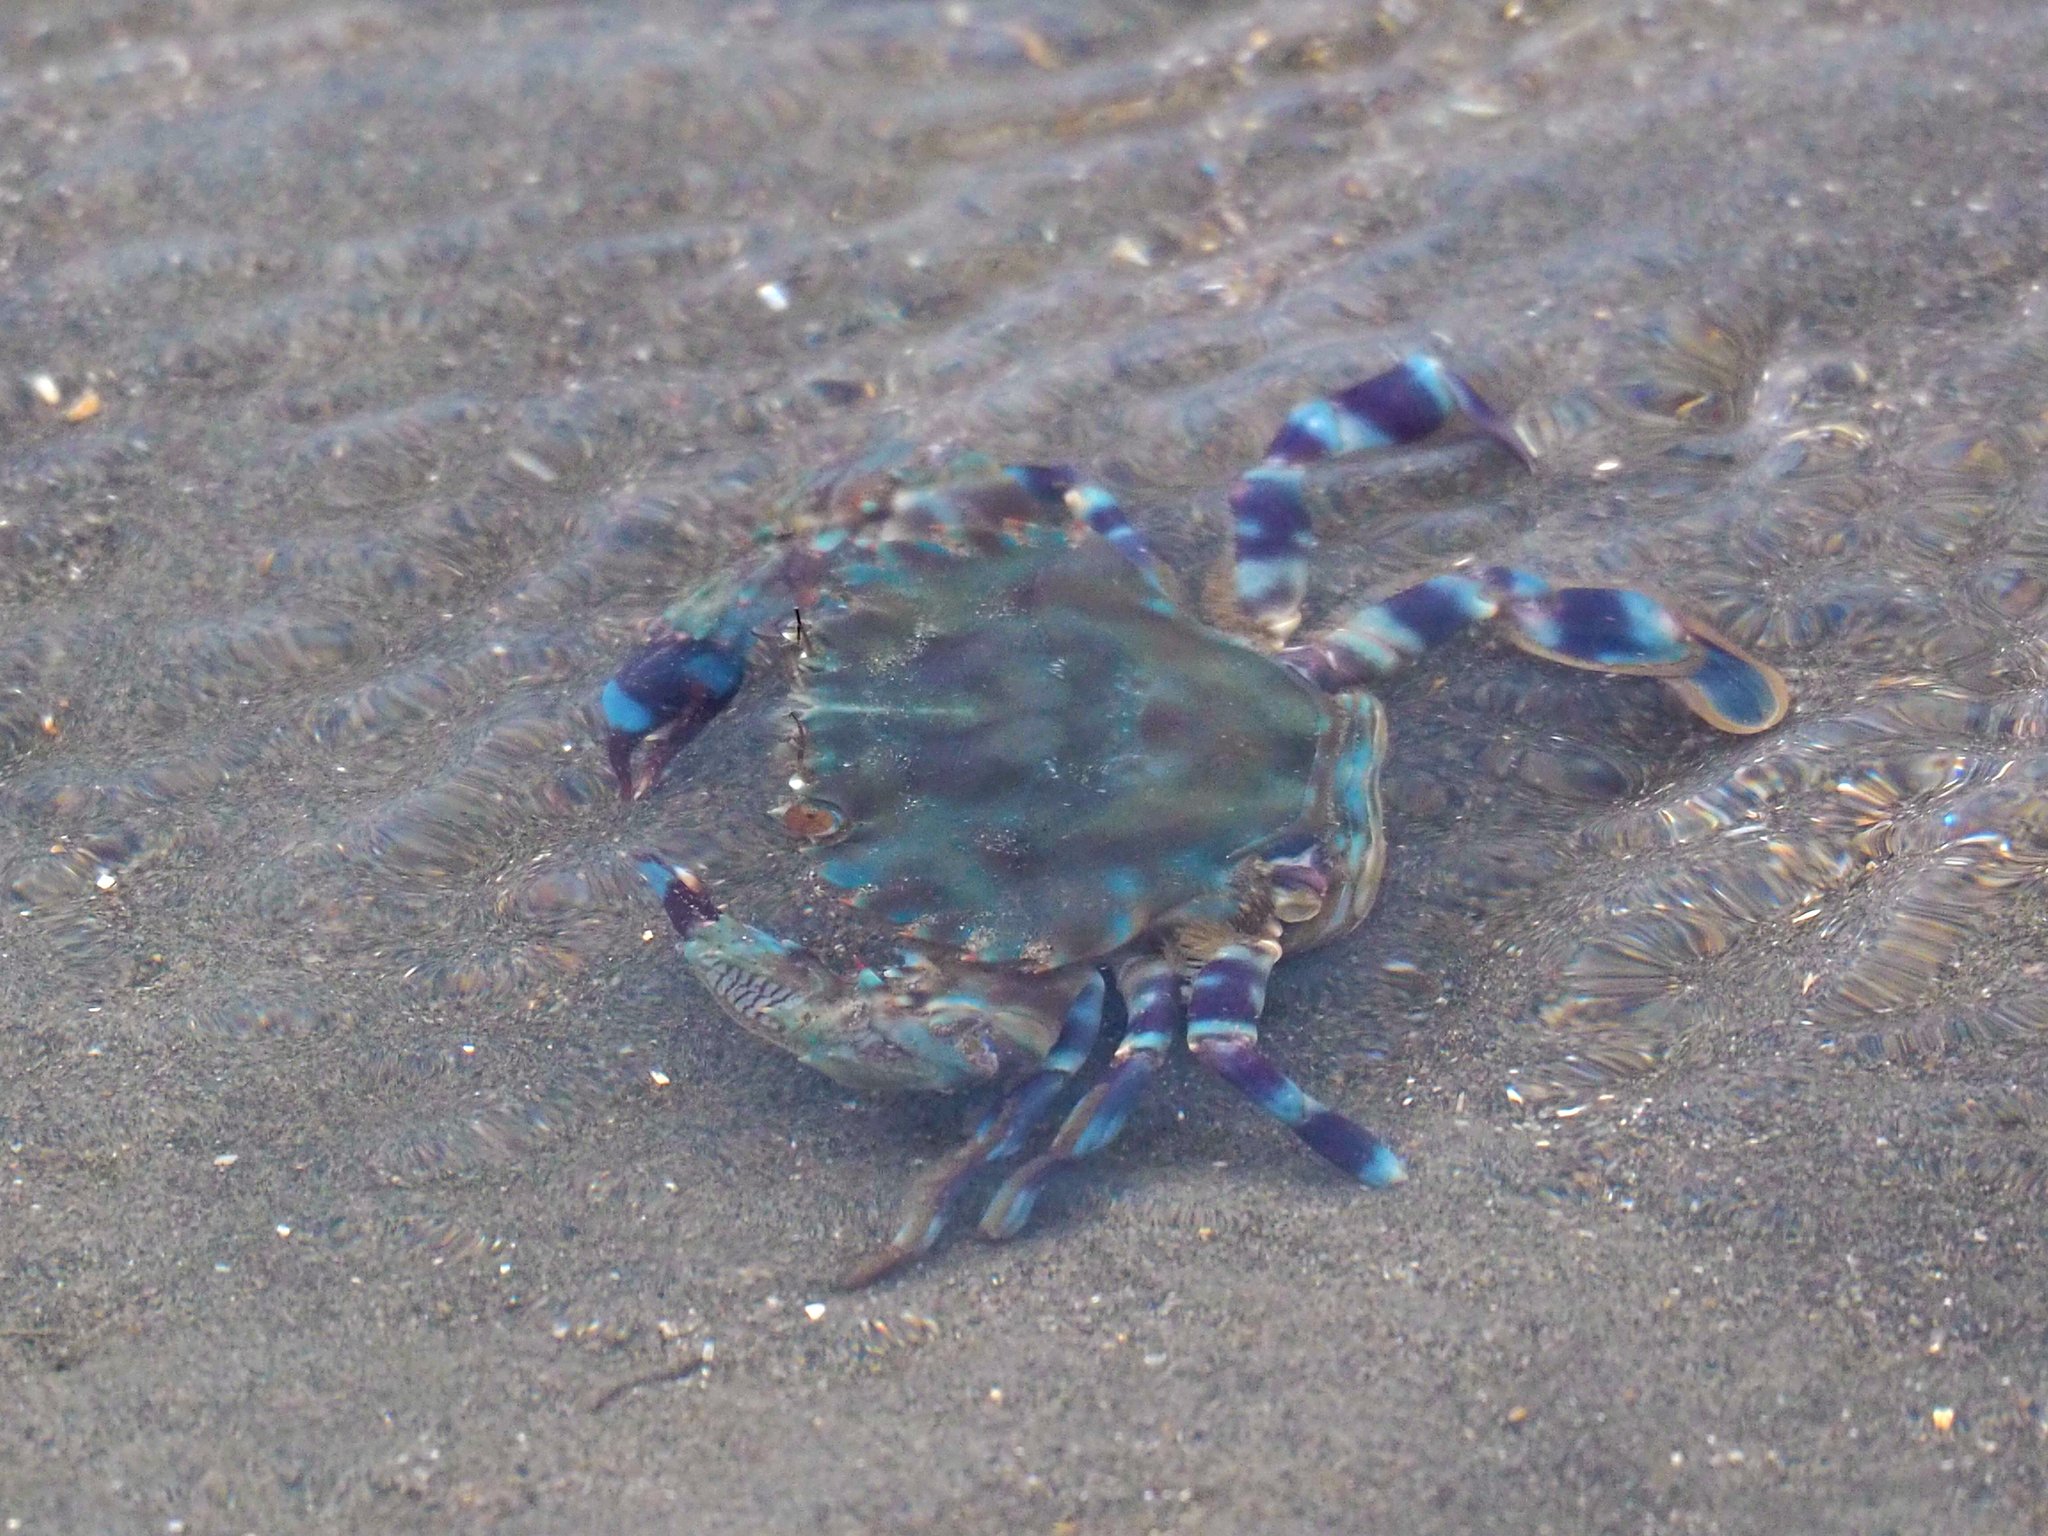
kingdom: Animalia
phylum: Arthropoda
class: Malacostraca
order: Decapoda
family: Portunidae
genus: Charybdis
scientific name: Charybdis annulata
